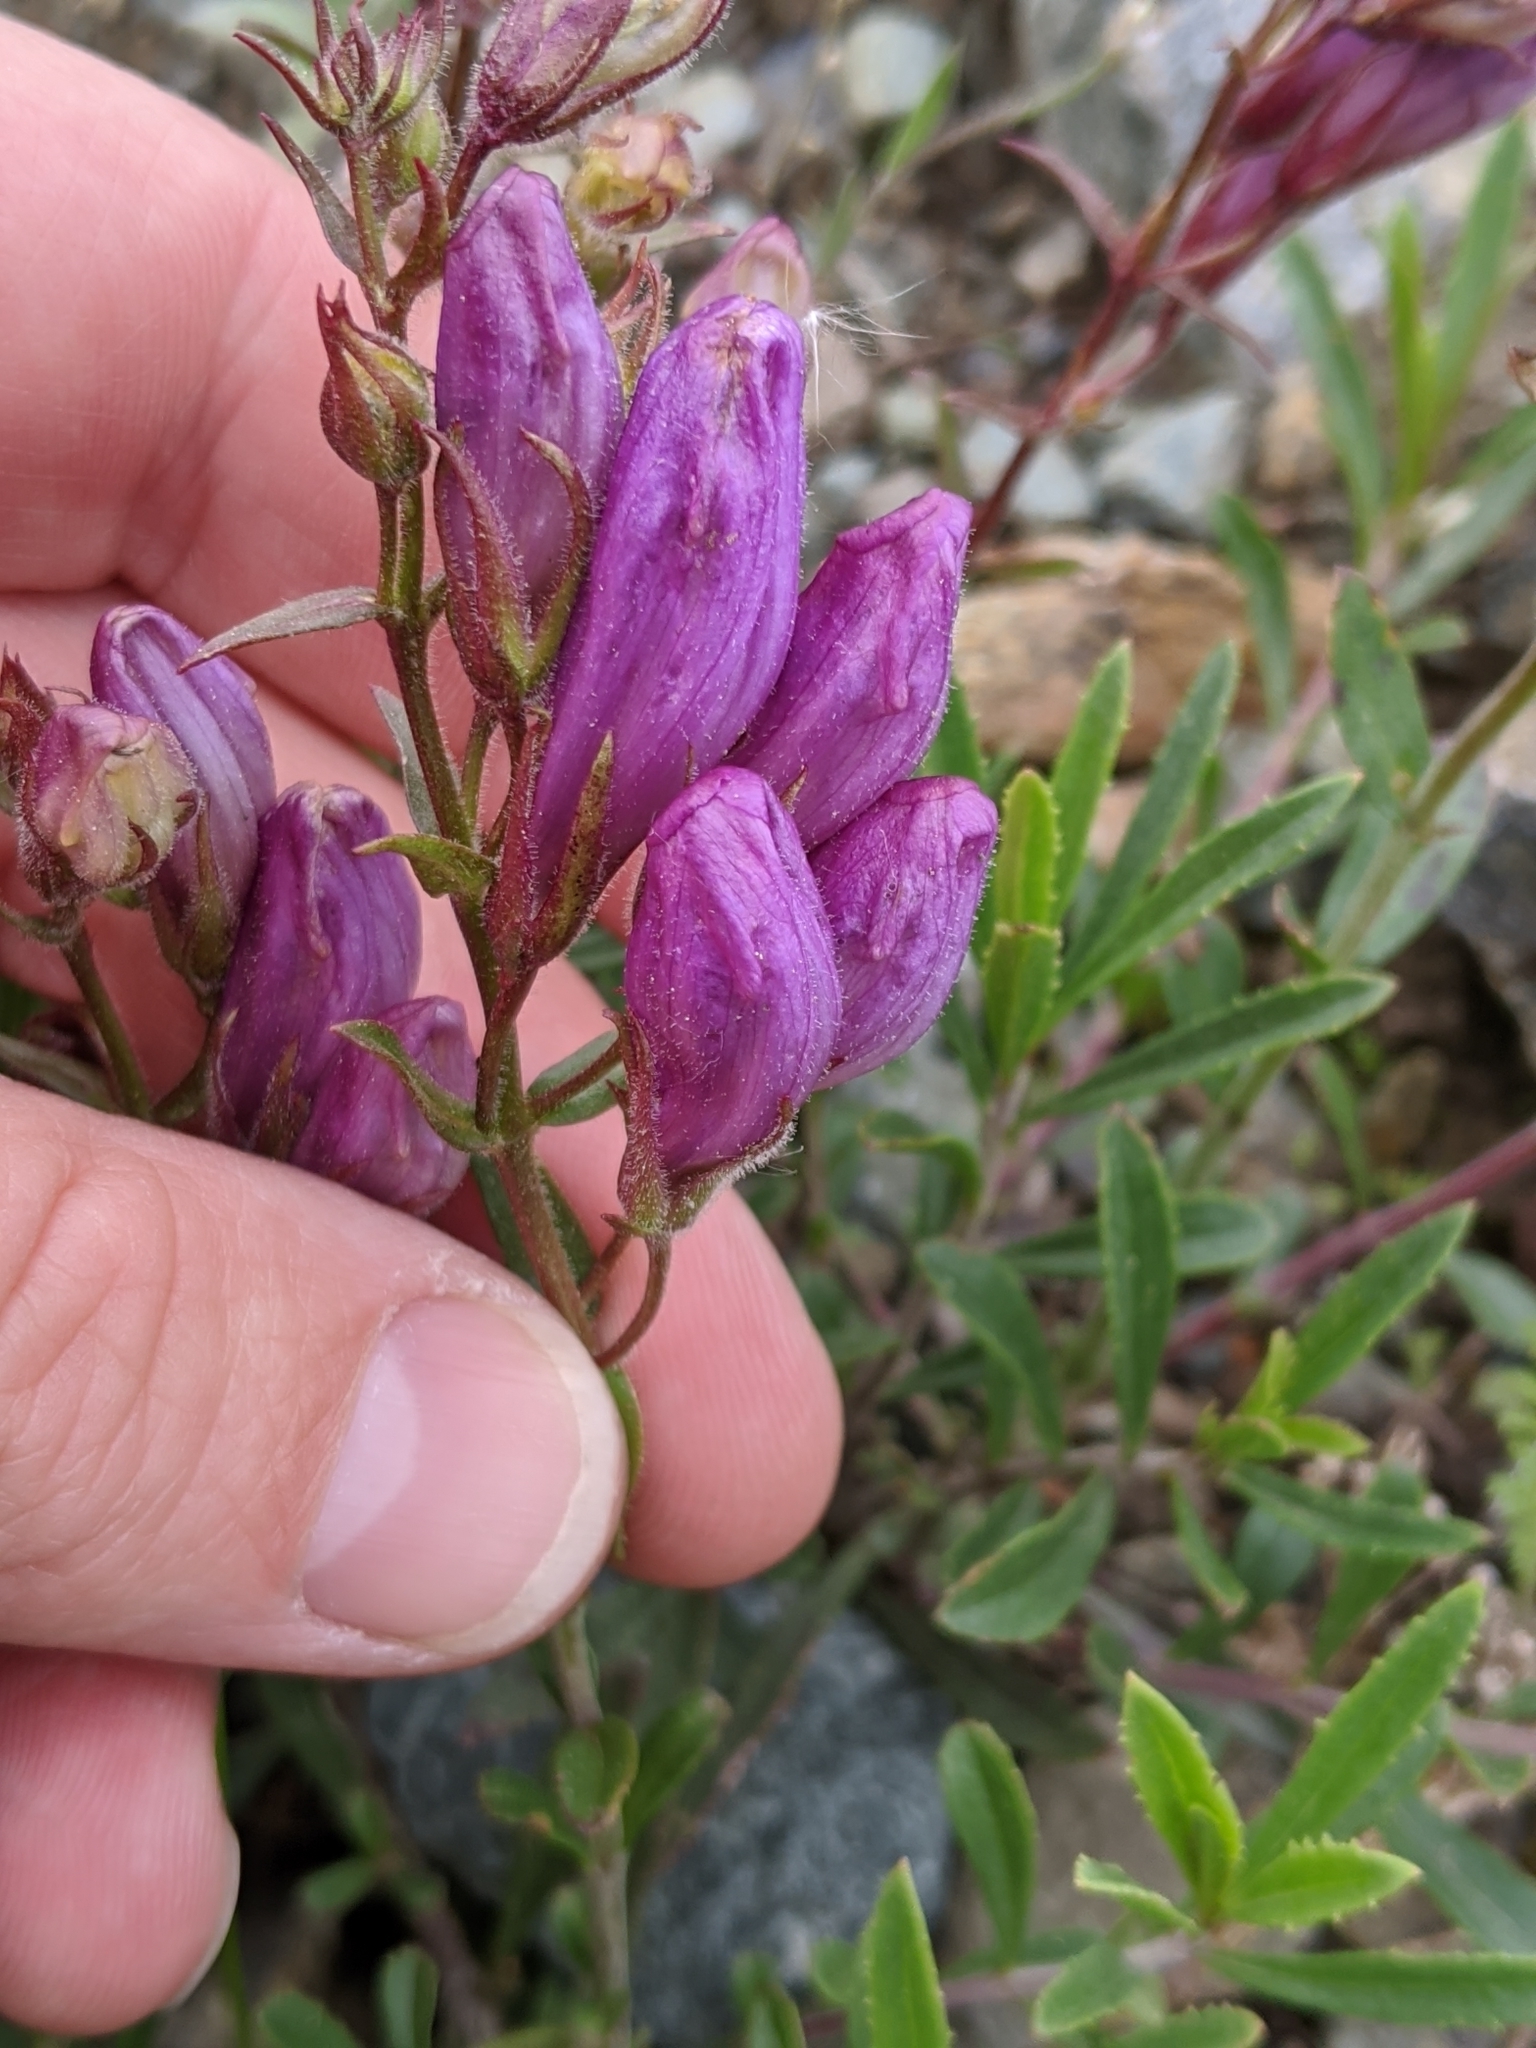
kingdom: Plantae
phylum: Tracheophyta
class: Magnoliopsida
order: Lamiales
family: Plantaginaceae
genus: Penstemon
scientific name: Penstemon fruticosus
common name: Bush penstemon
